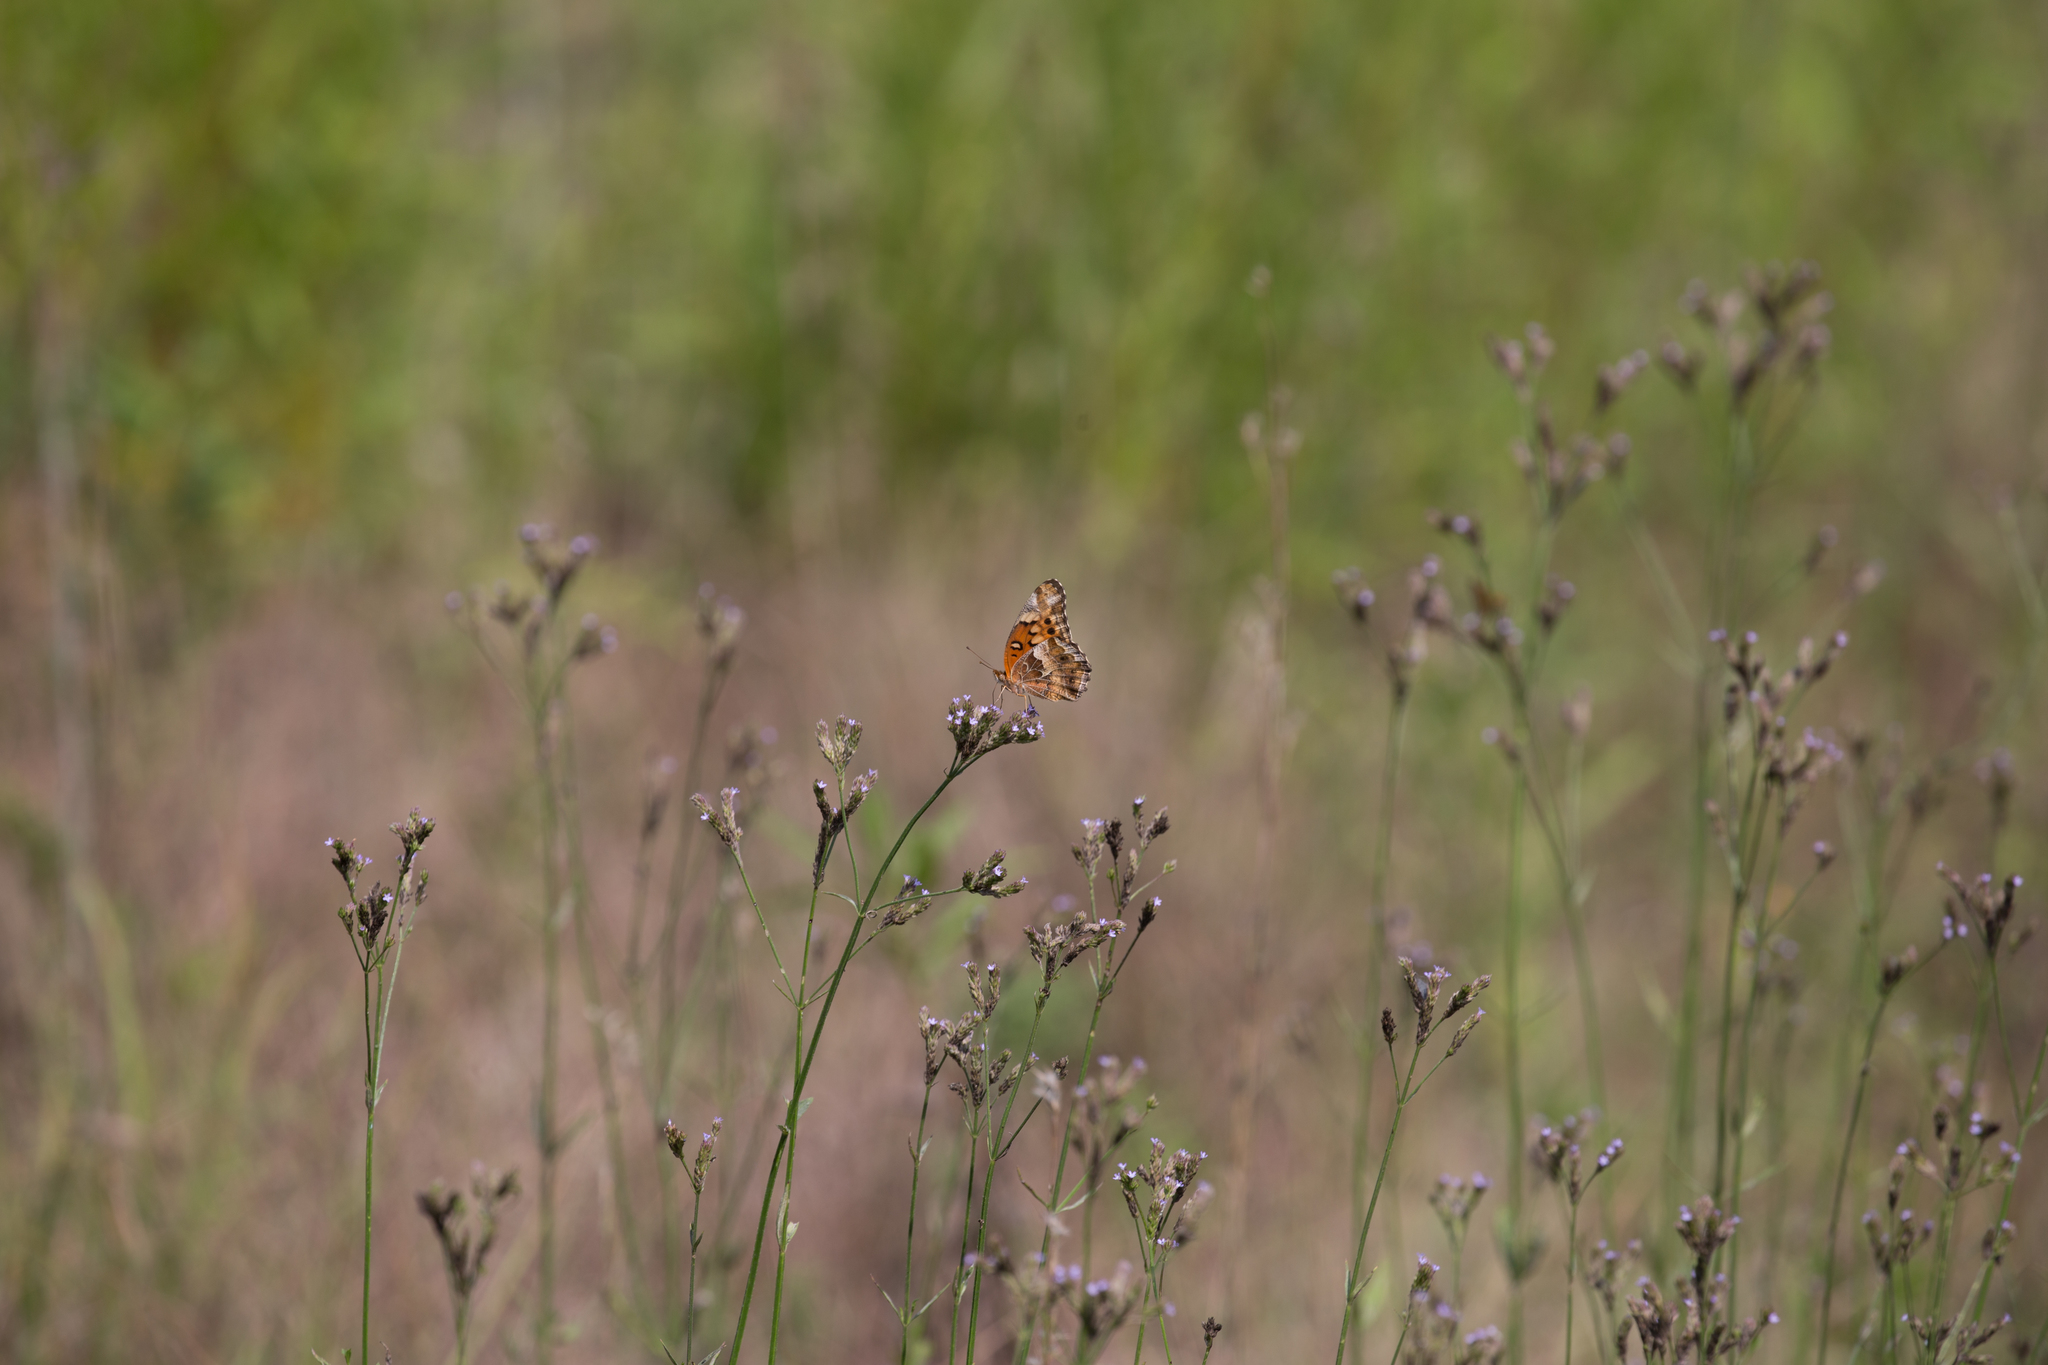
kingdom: Animalia
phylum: Arthropoda
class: Insecta
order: Lepidoptera
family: Nymphalidae
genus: Euptoieta
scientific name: Euptoieta claudia
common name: Variegated fritillary
